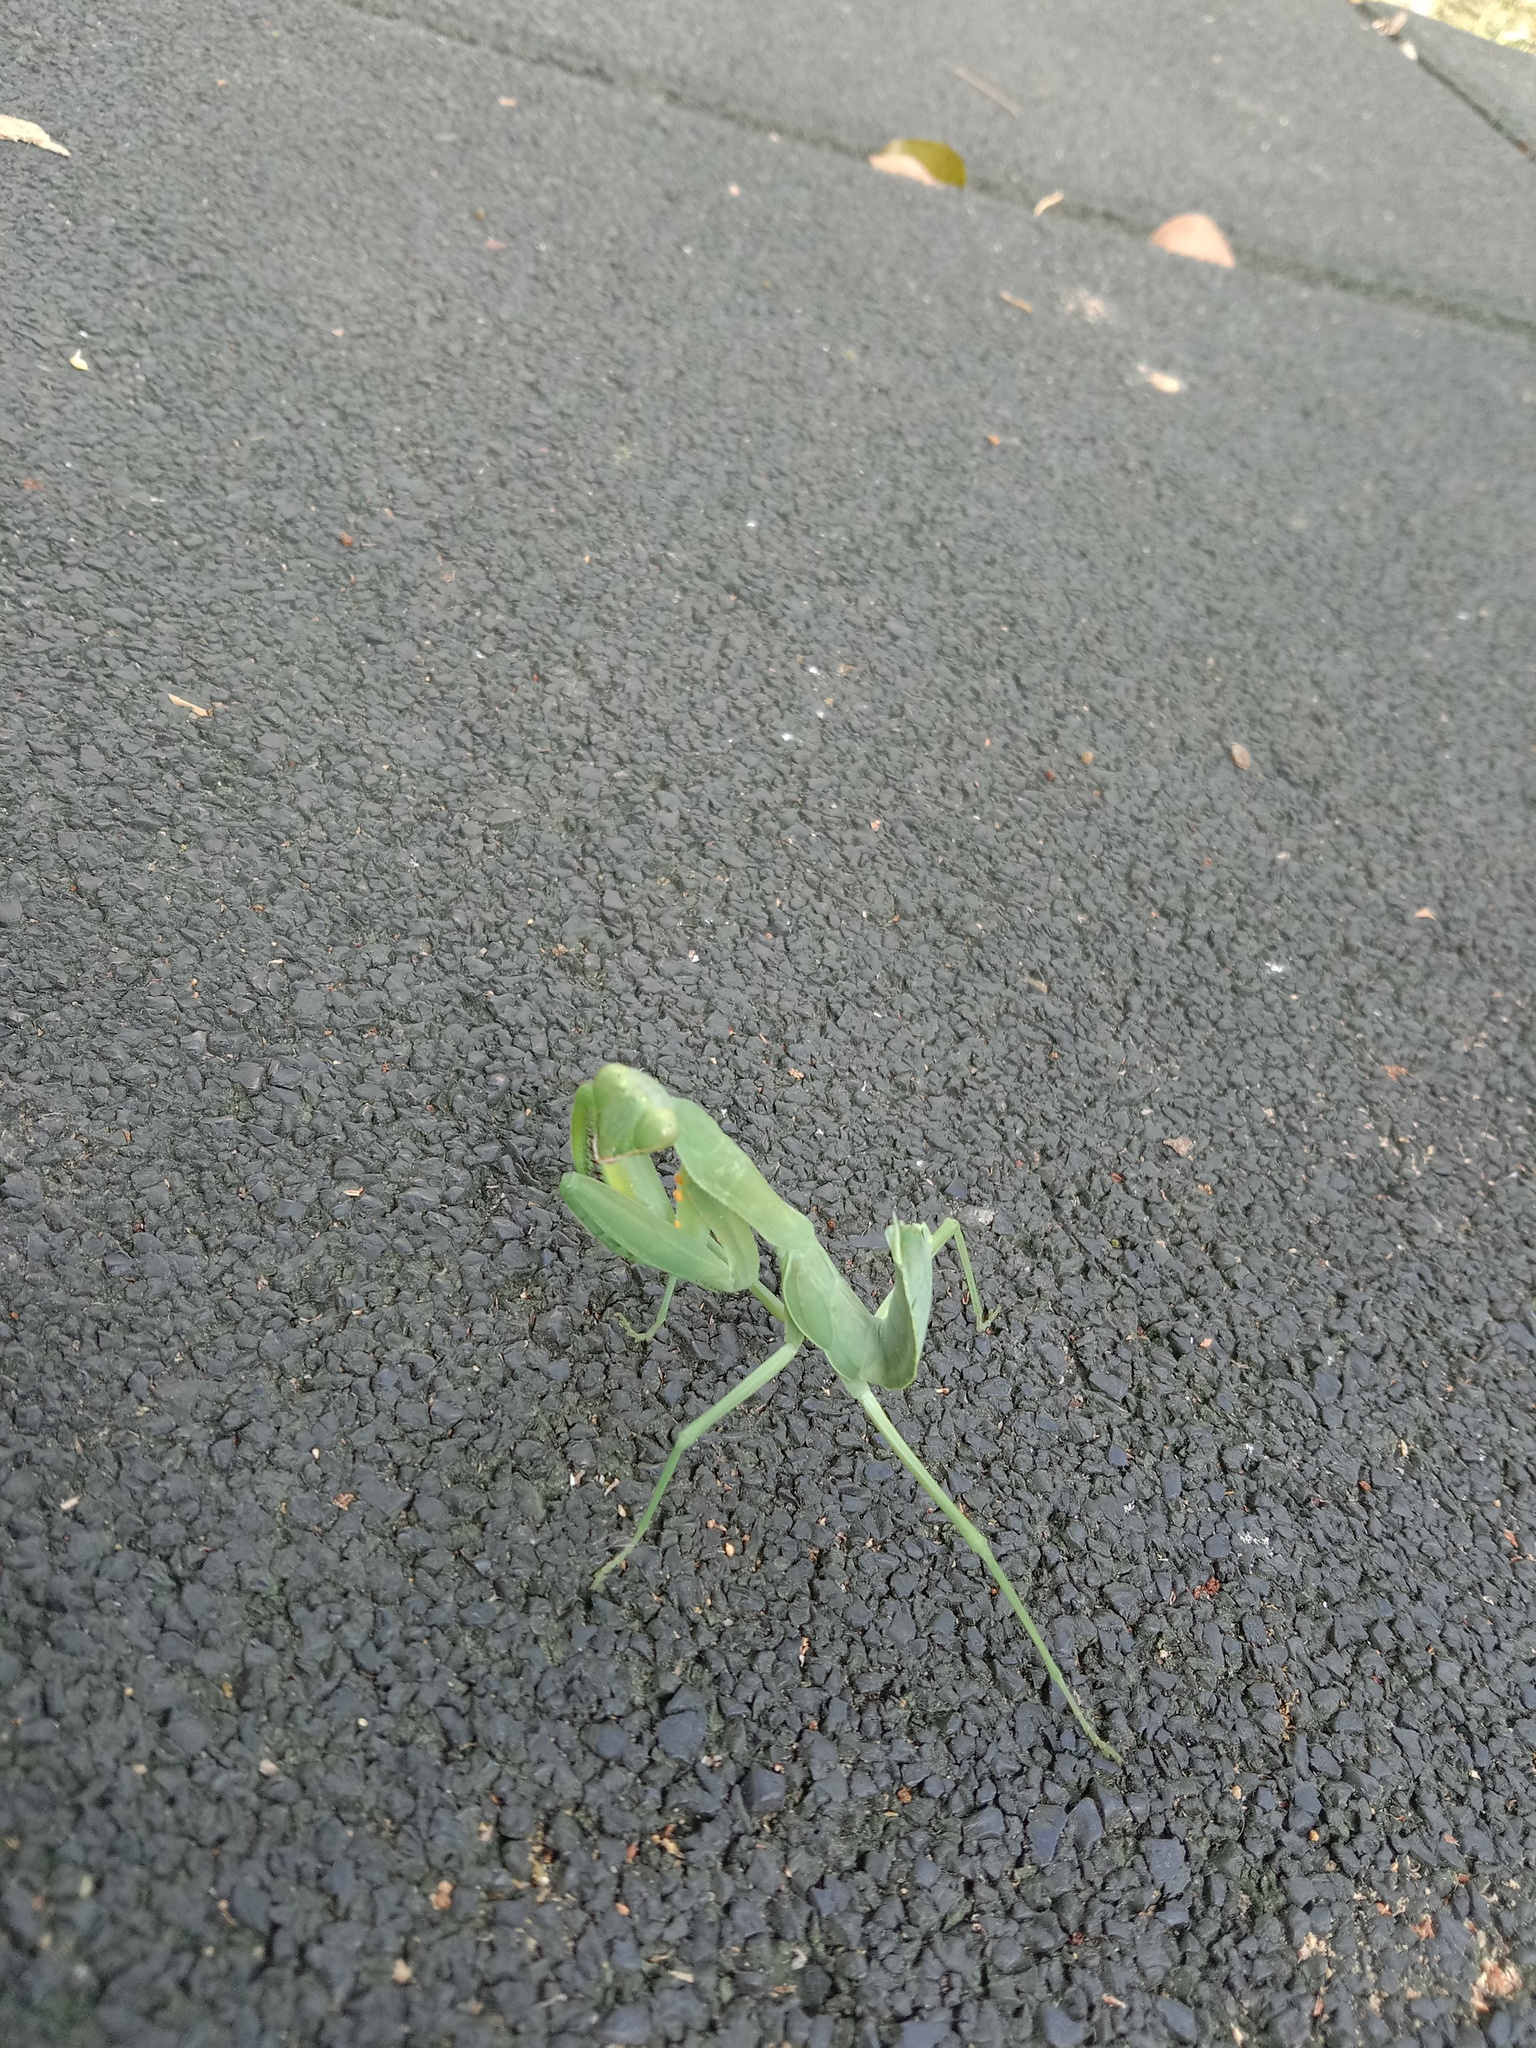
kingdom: Animalia
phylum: Arthropoda
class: Insecta
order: Mantodea
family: Mantidae
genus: Hierodula
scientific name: Hierodula patellifera
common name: Asian mantis
